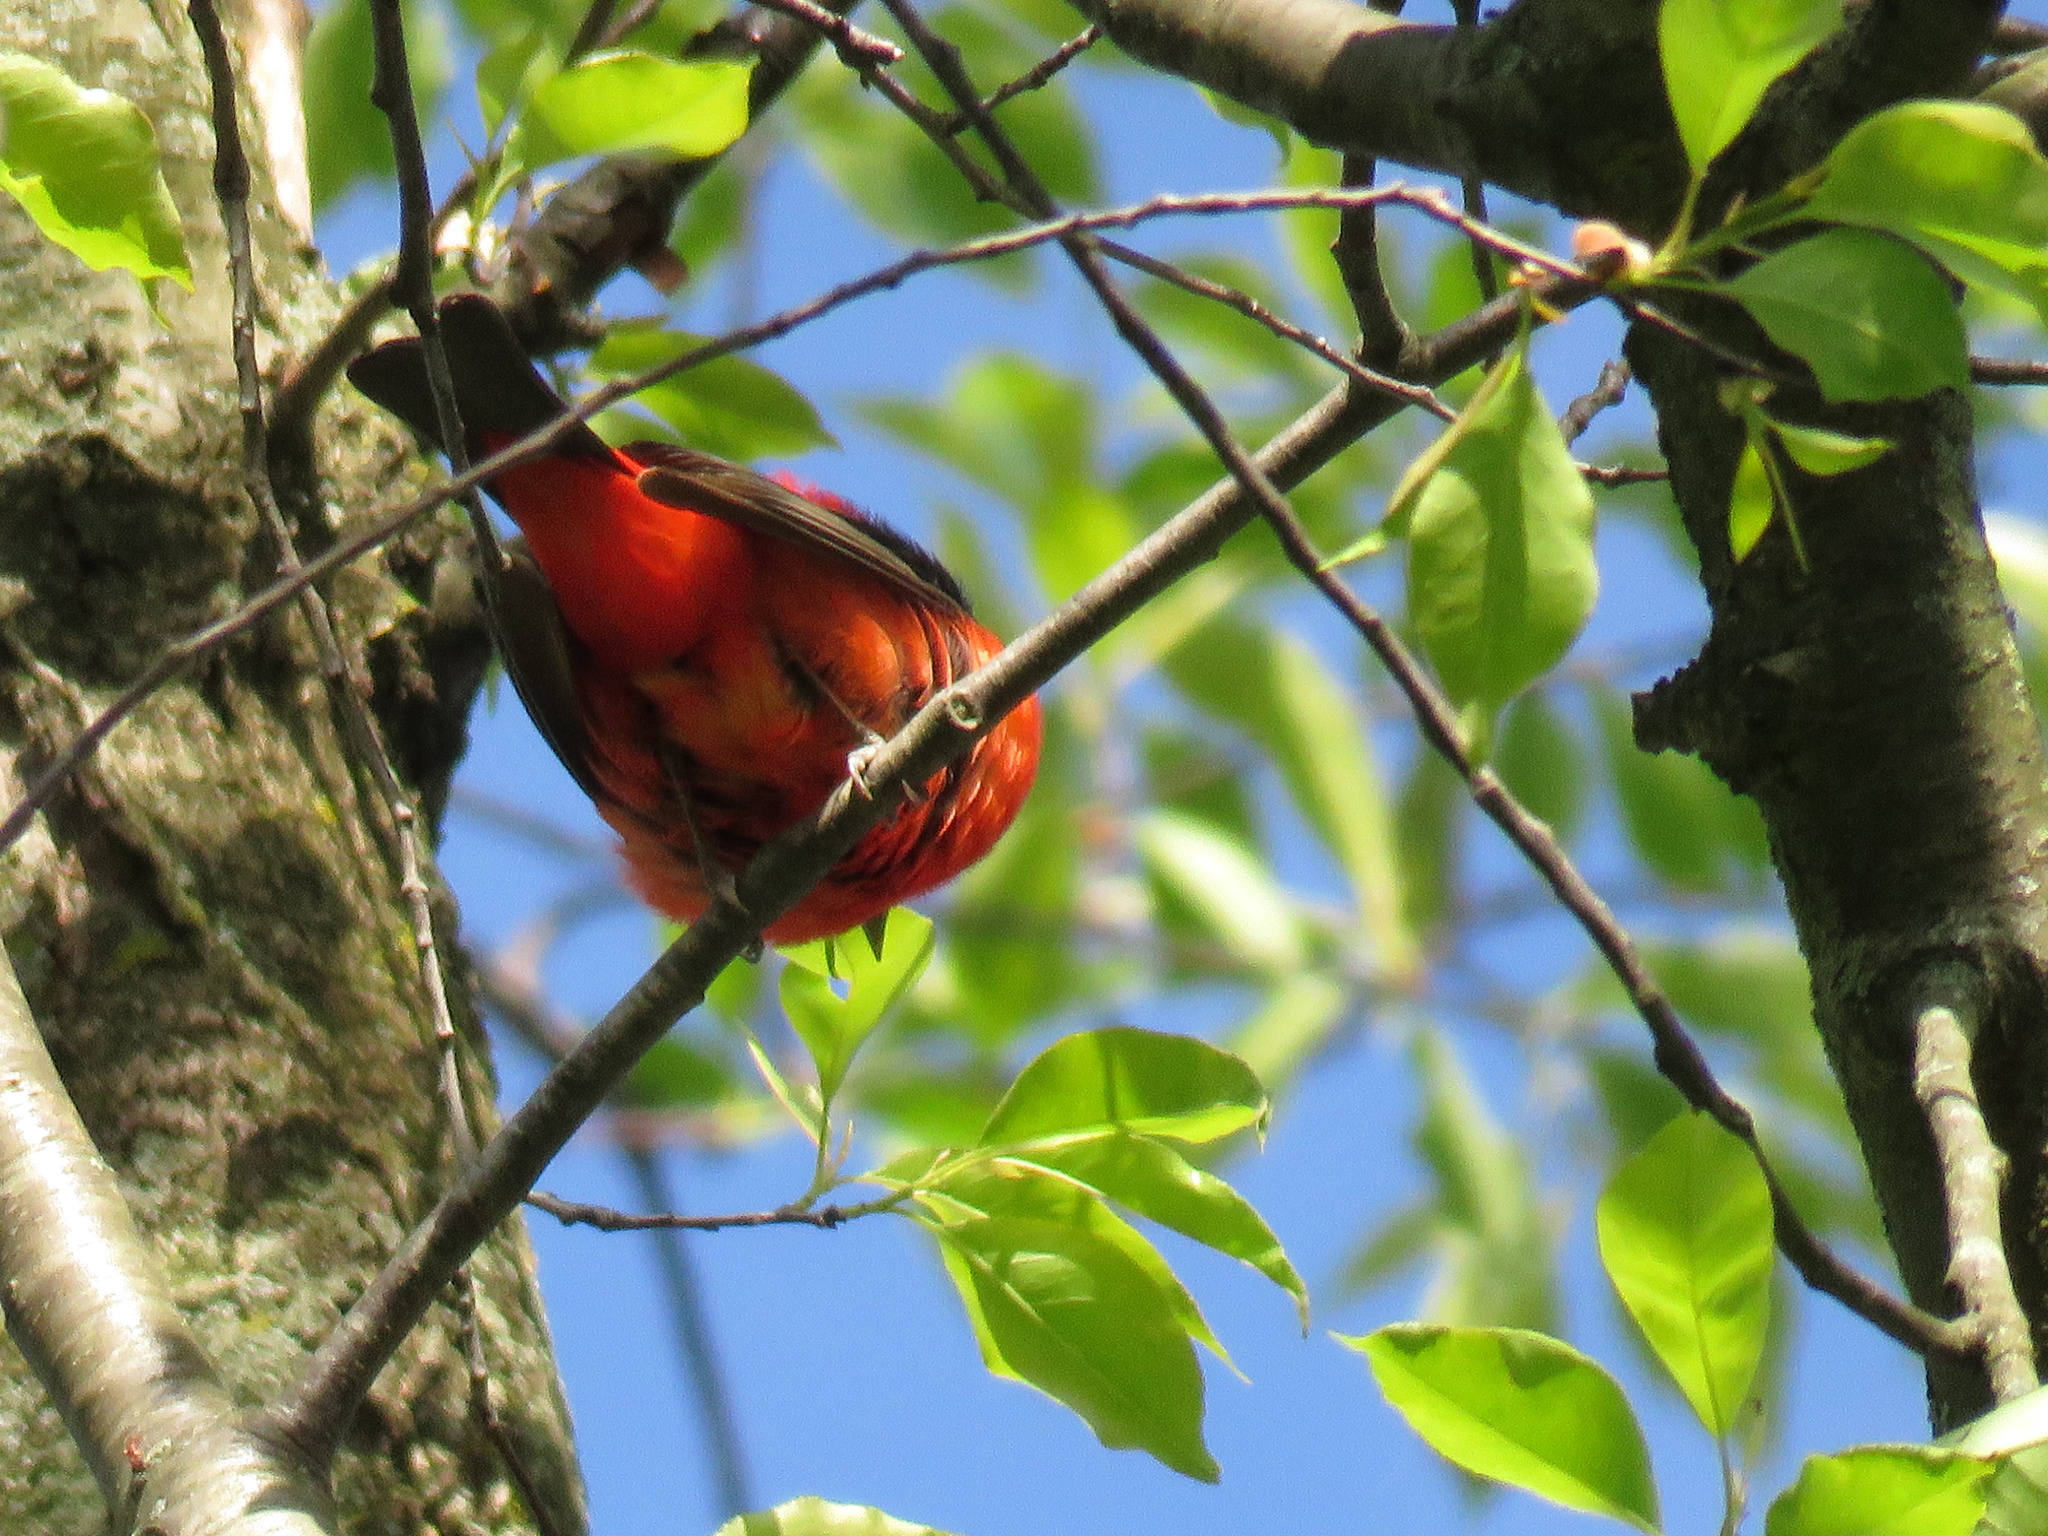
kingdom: Animalia
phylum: Chordata
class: Aves
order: Passeriformes
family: Cardinalidae
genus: Piranga
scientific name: Piranga olivacea
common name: Scarlet tanager
